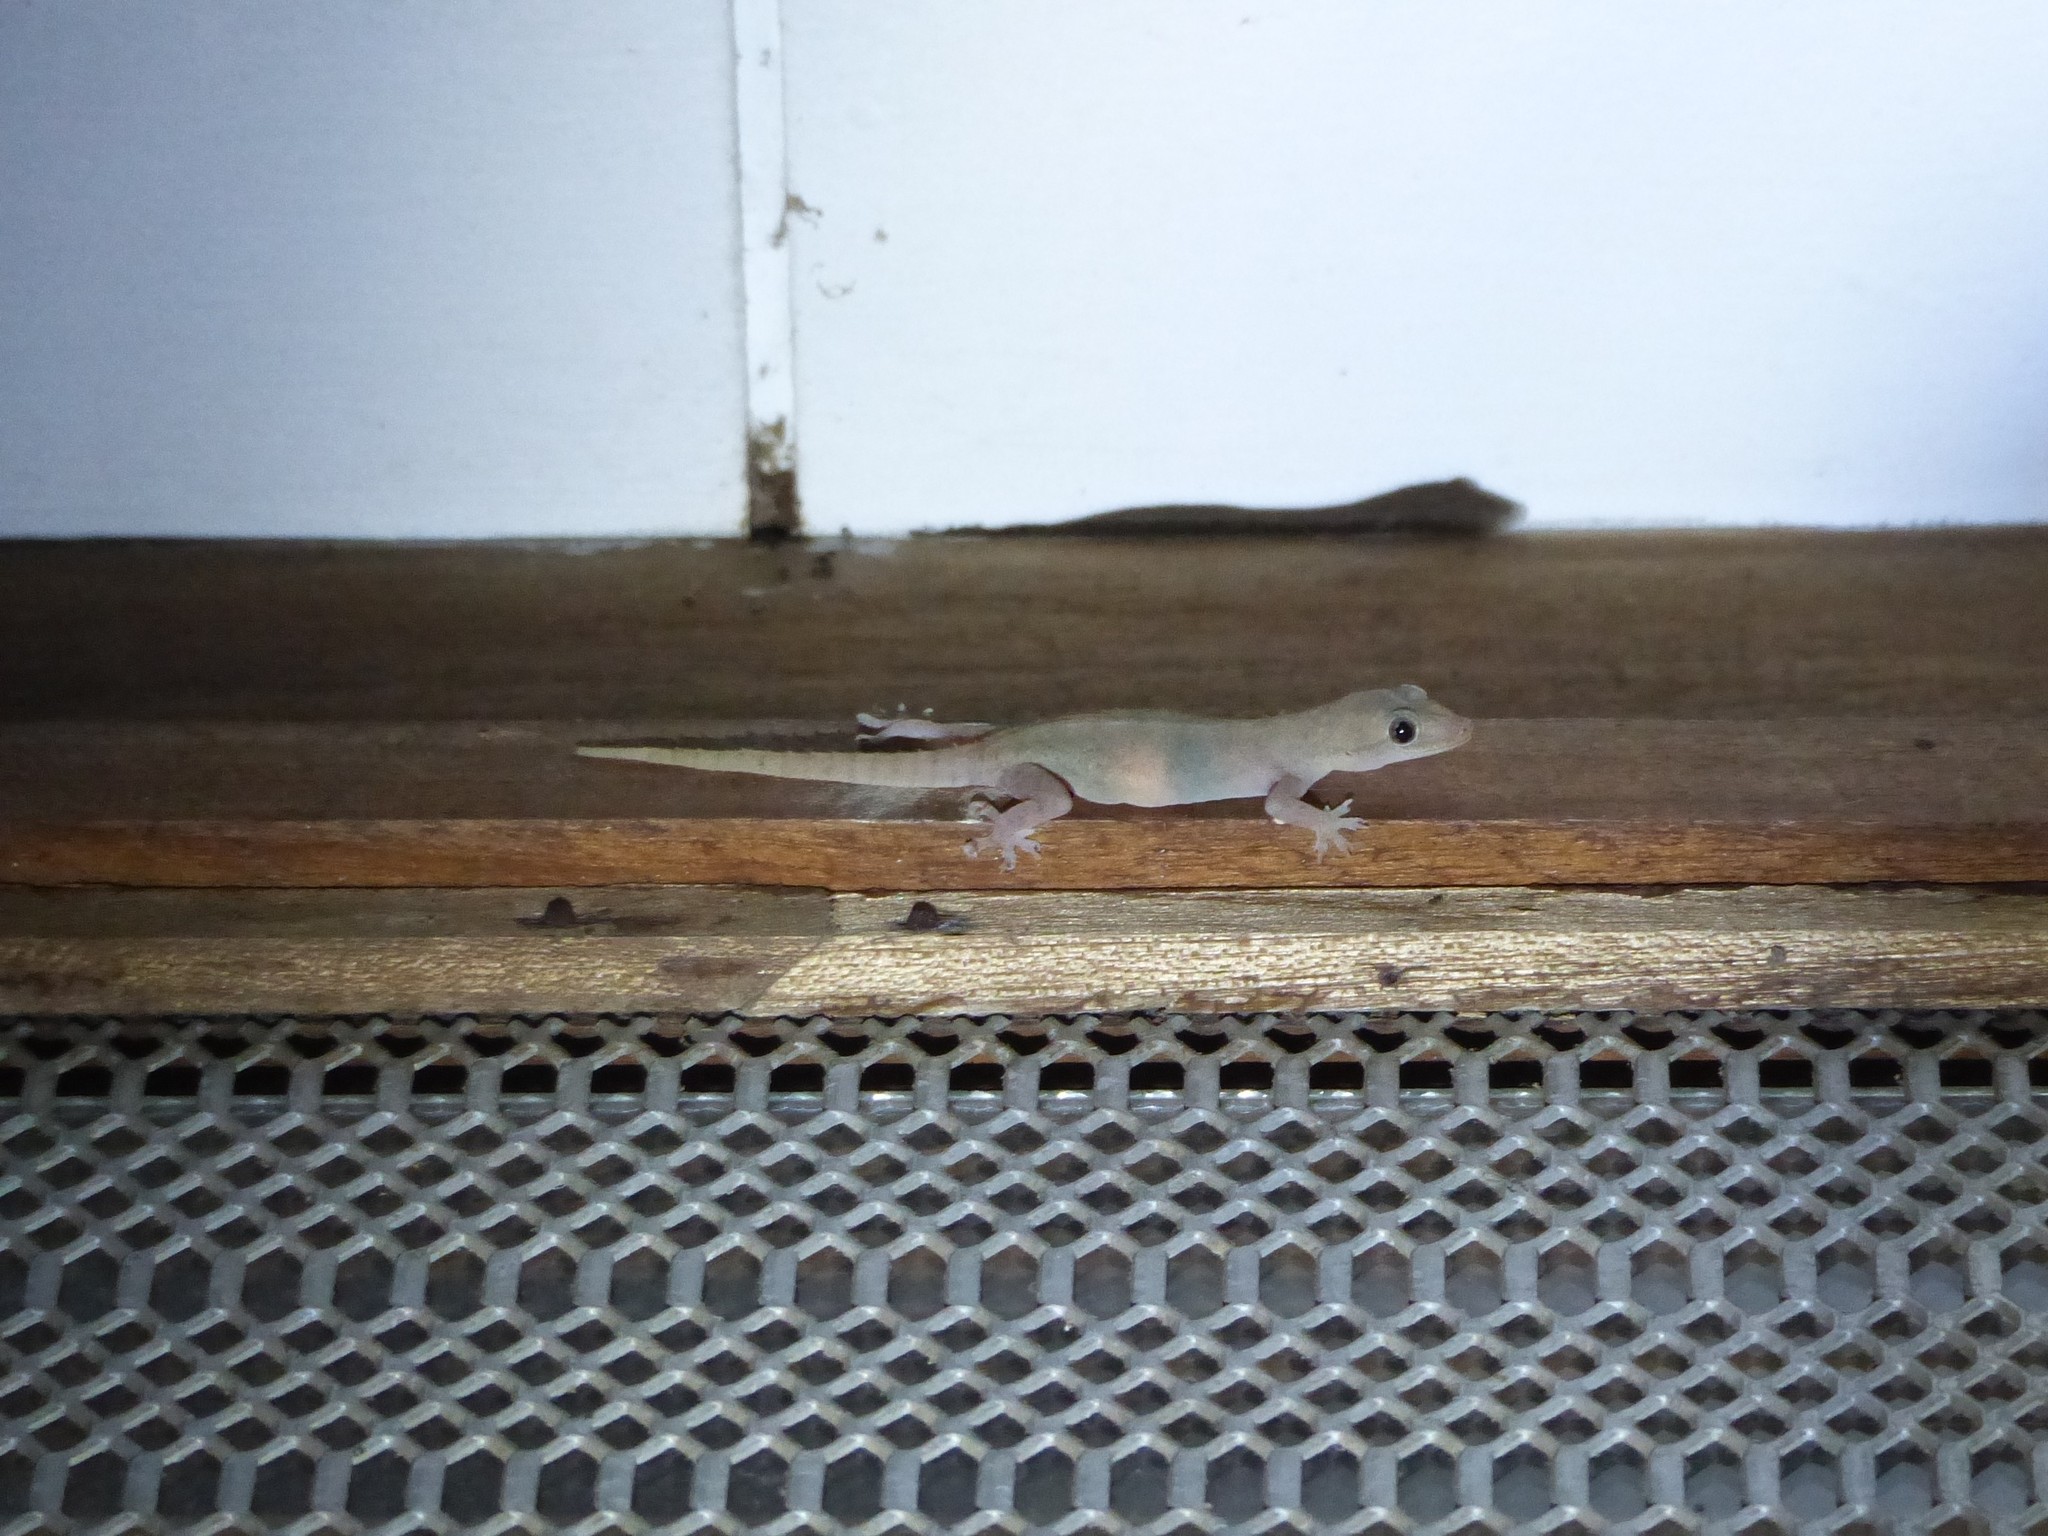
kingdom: Animalia
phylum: Chordata
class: Squamata
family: Gekkonidae
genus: Hemidactylus
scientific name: Hemidactylus frenatus
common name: Common house gecko
